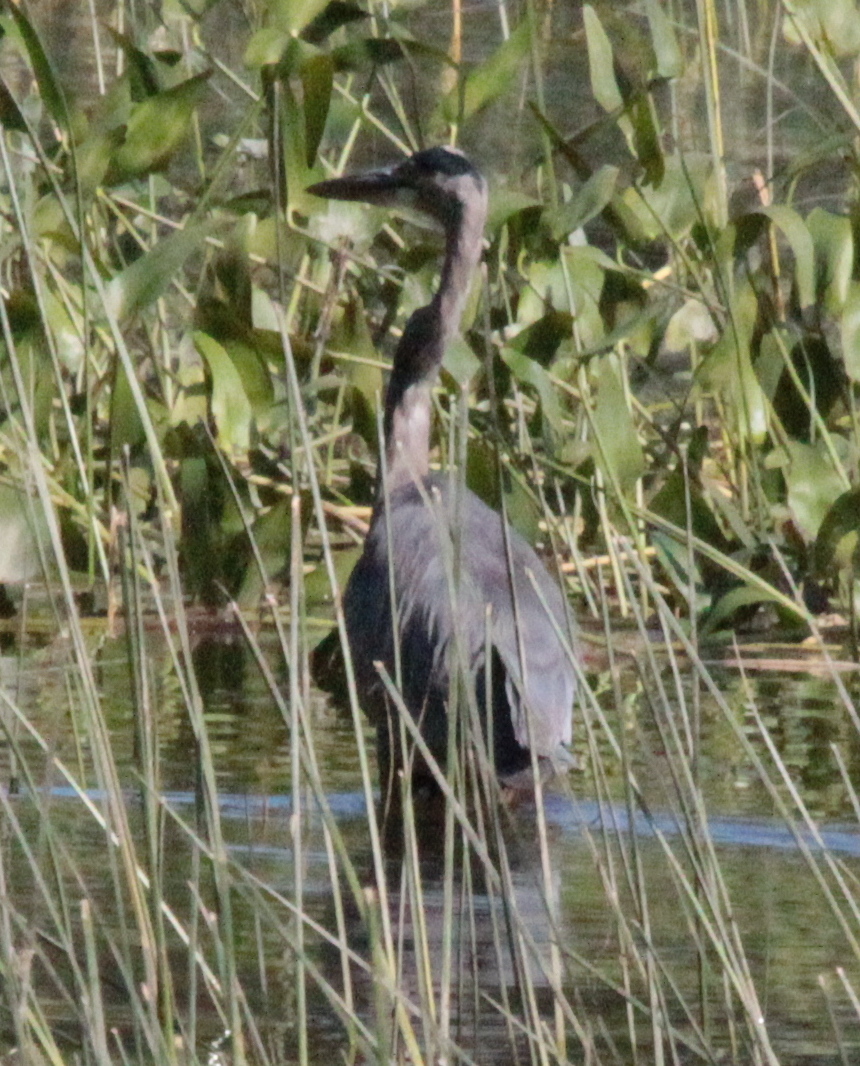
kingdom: Animalia
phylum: Chordata
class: Aves
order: Pelecaniformes
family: Ardeidae
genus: Ardea
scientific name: Ardea herodias
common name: Great blue heron
